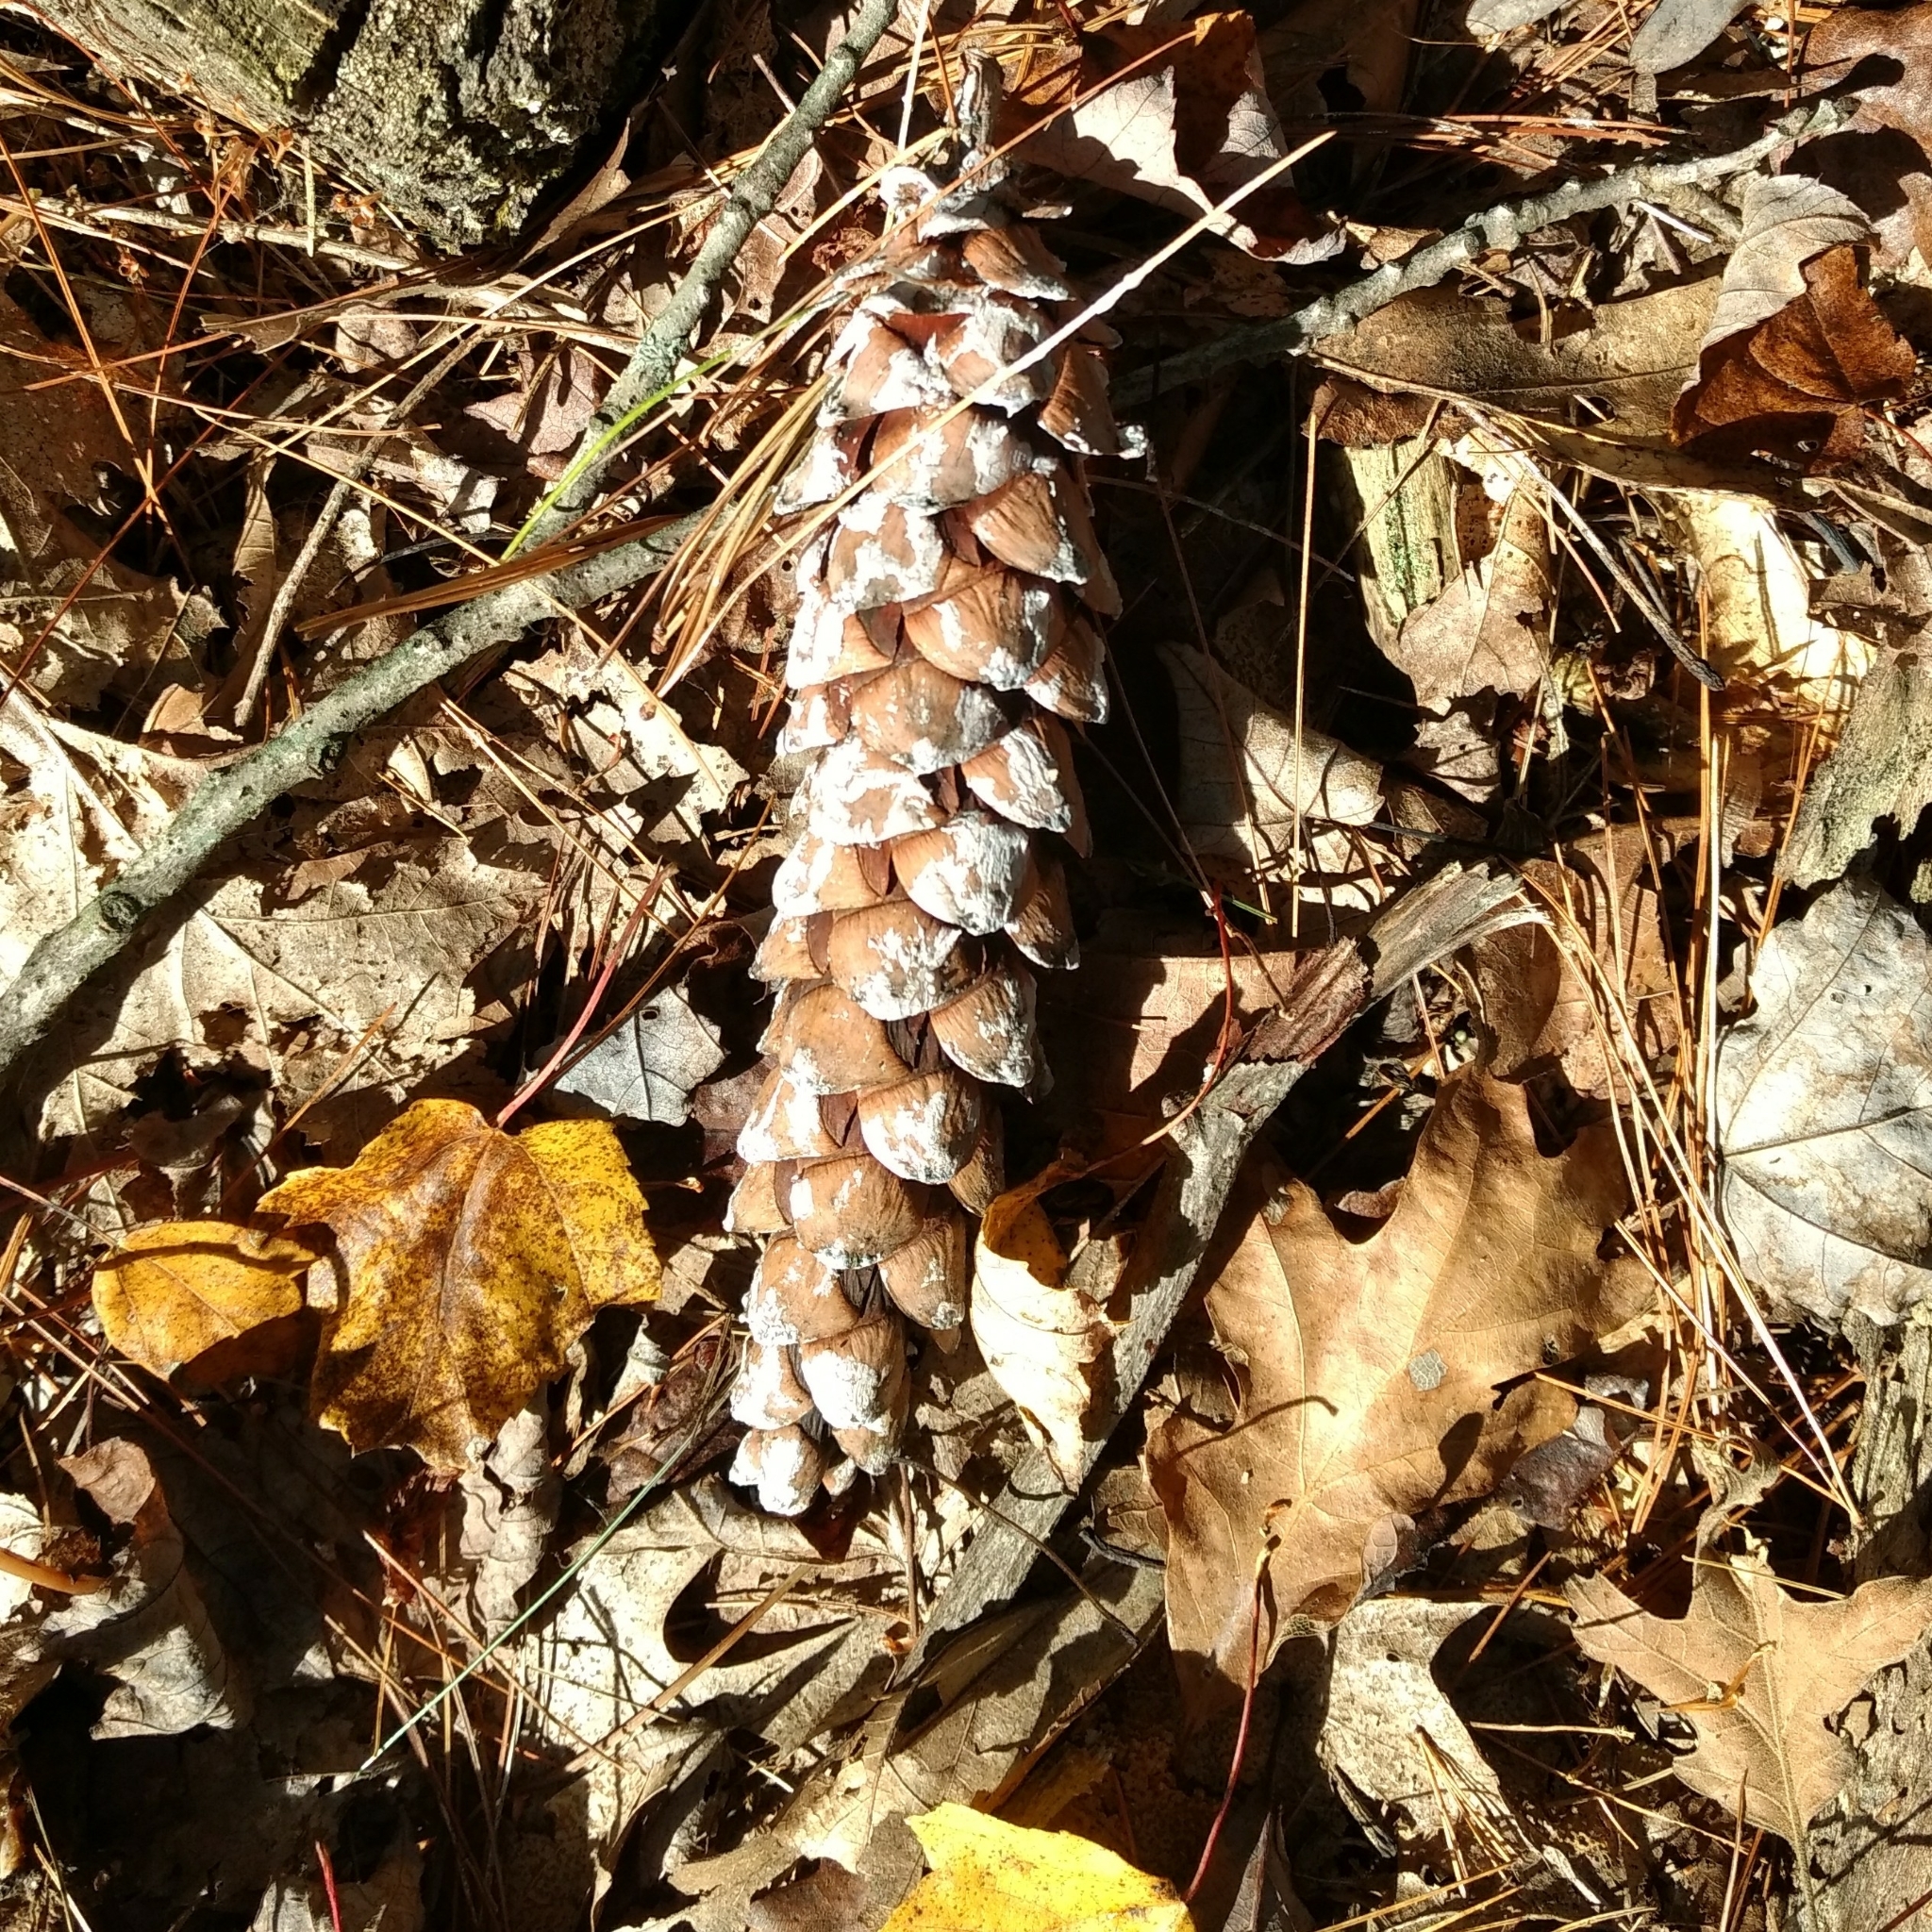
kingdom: Plantae
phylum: Tracheophyta
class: Pinopsida
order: Pinales
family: Pinaceae
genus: Pinus
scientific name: Pinus strobus
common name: Weymouth pine
